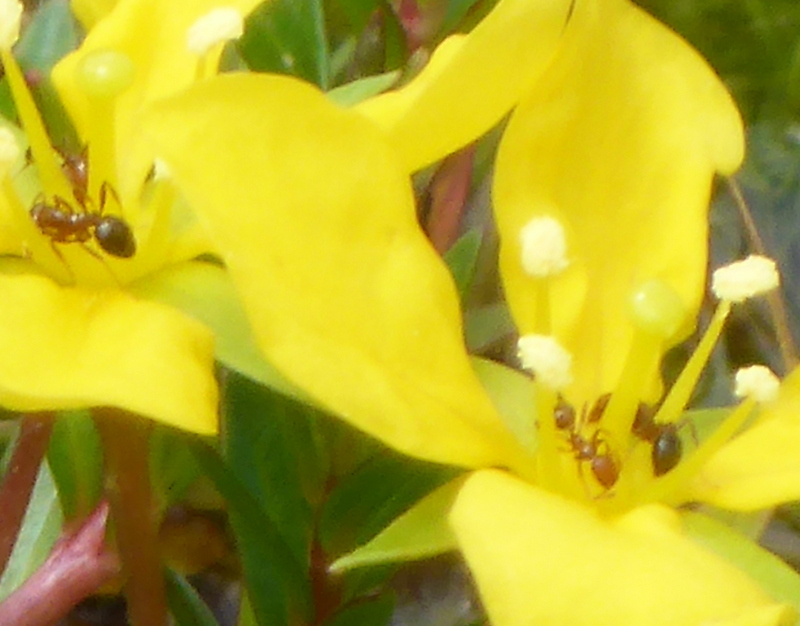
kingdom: Animalia
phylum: Arthropoda
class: Insecta
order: Hymenoptera
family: Formicidae
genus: Solenopsis
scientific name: Solenopsis invicta
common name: Red imported fire ant
